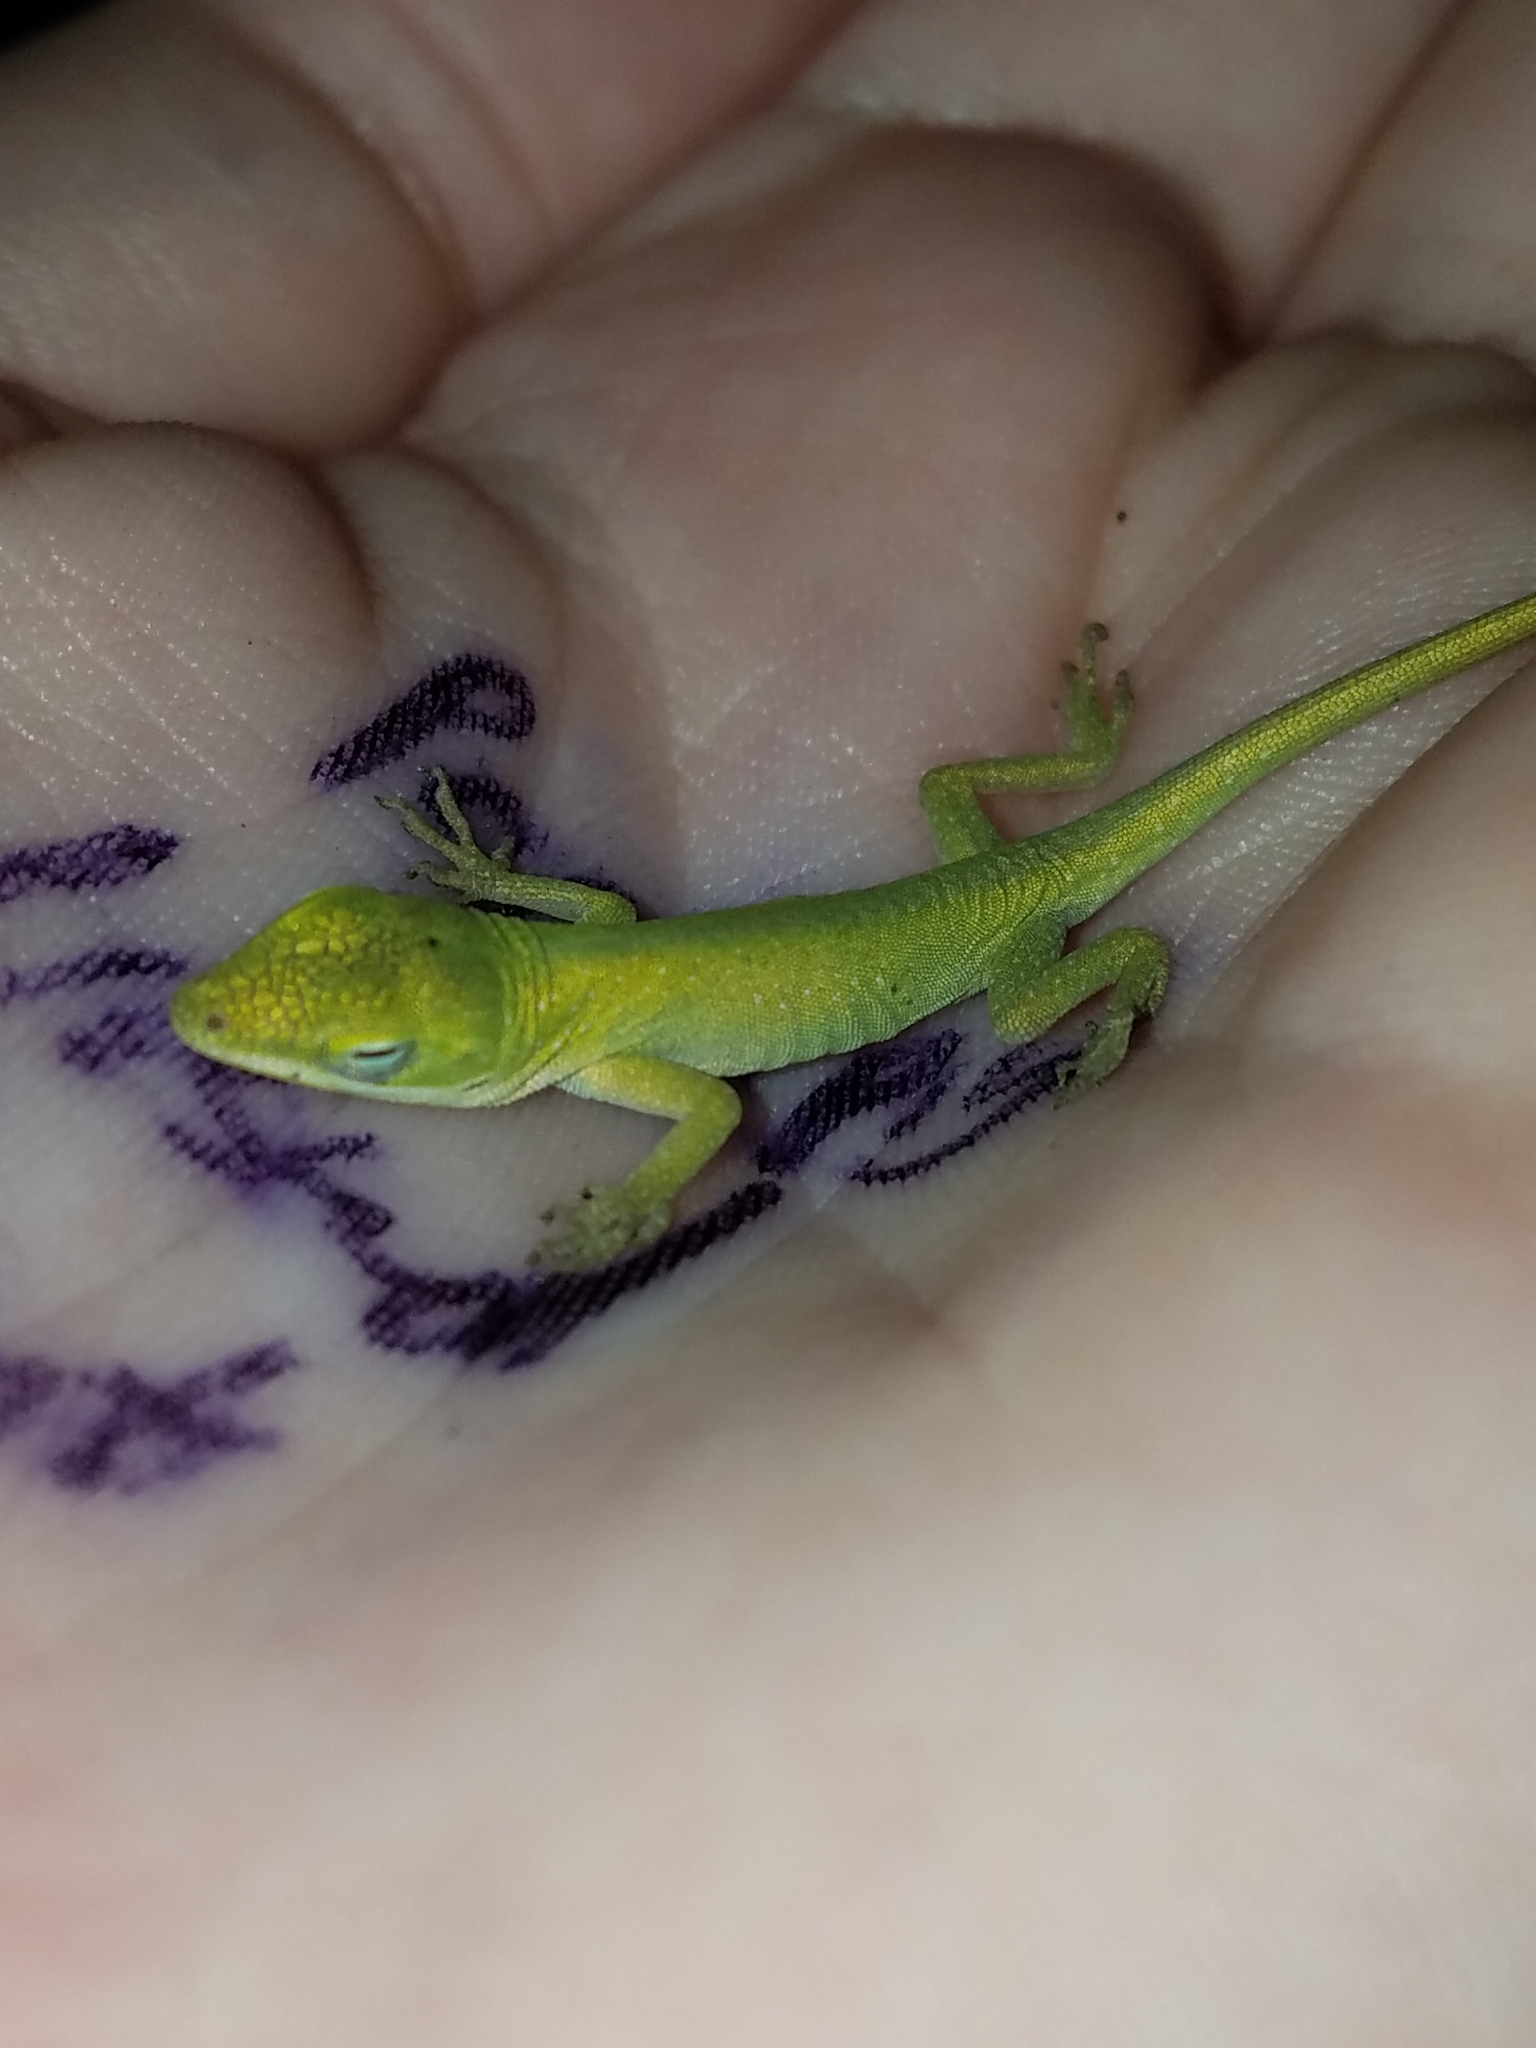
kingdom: Animalia
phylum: Chordata
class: Squamata
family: Dactyloidae
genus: Anolis
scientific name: Anolis carolinensis
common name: Green anole
